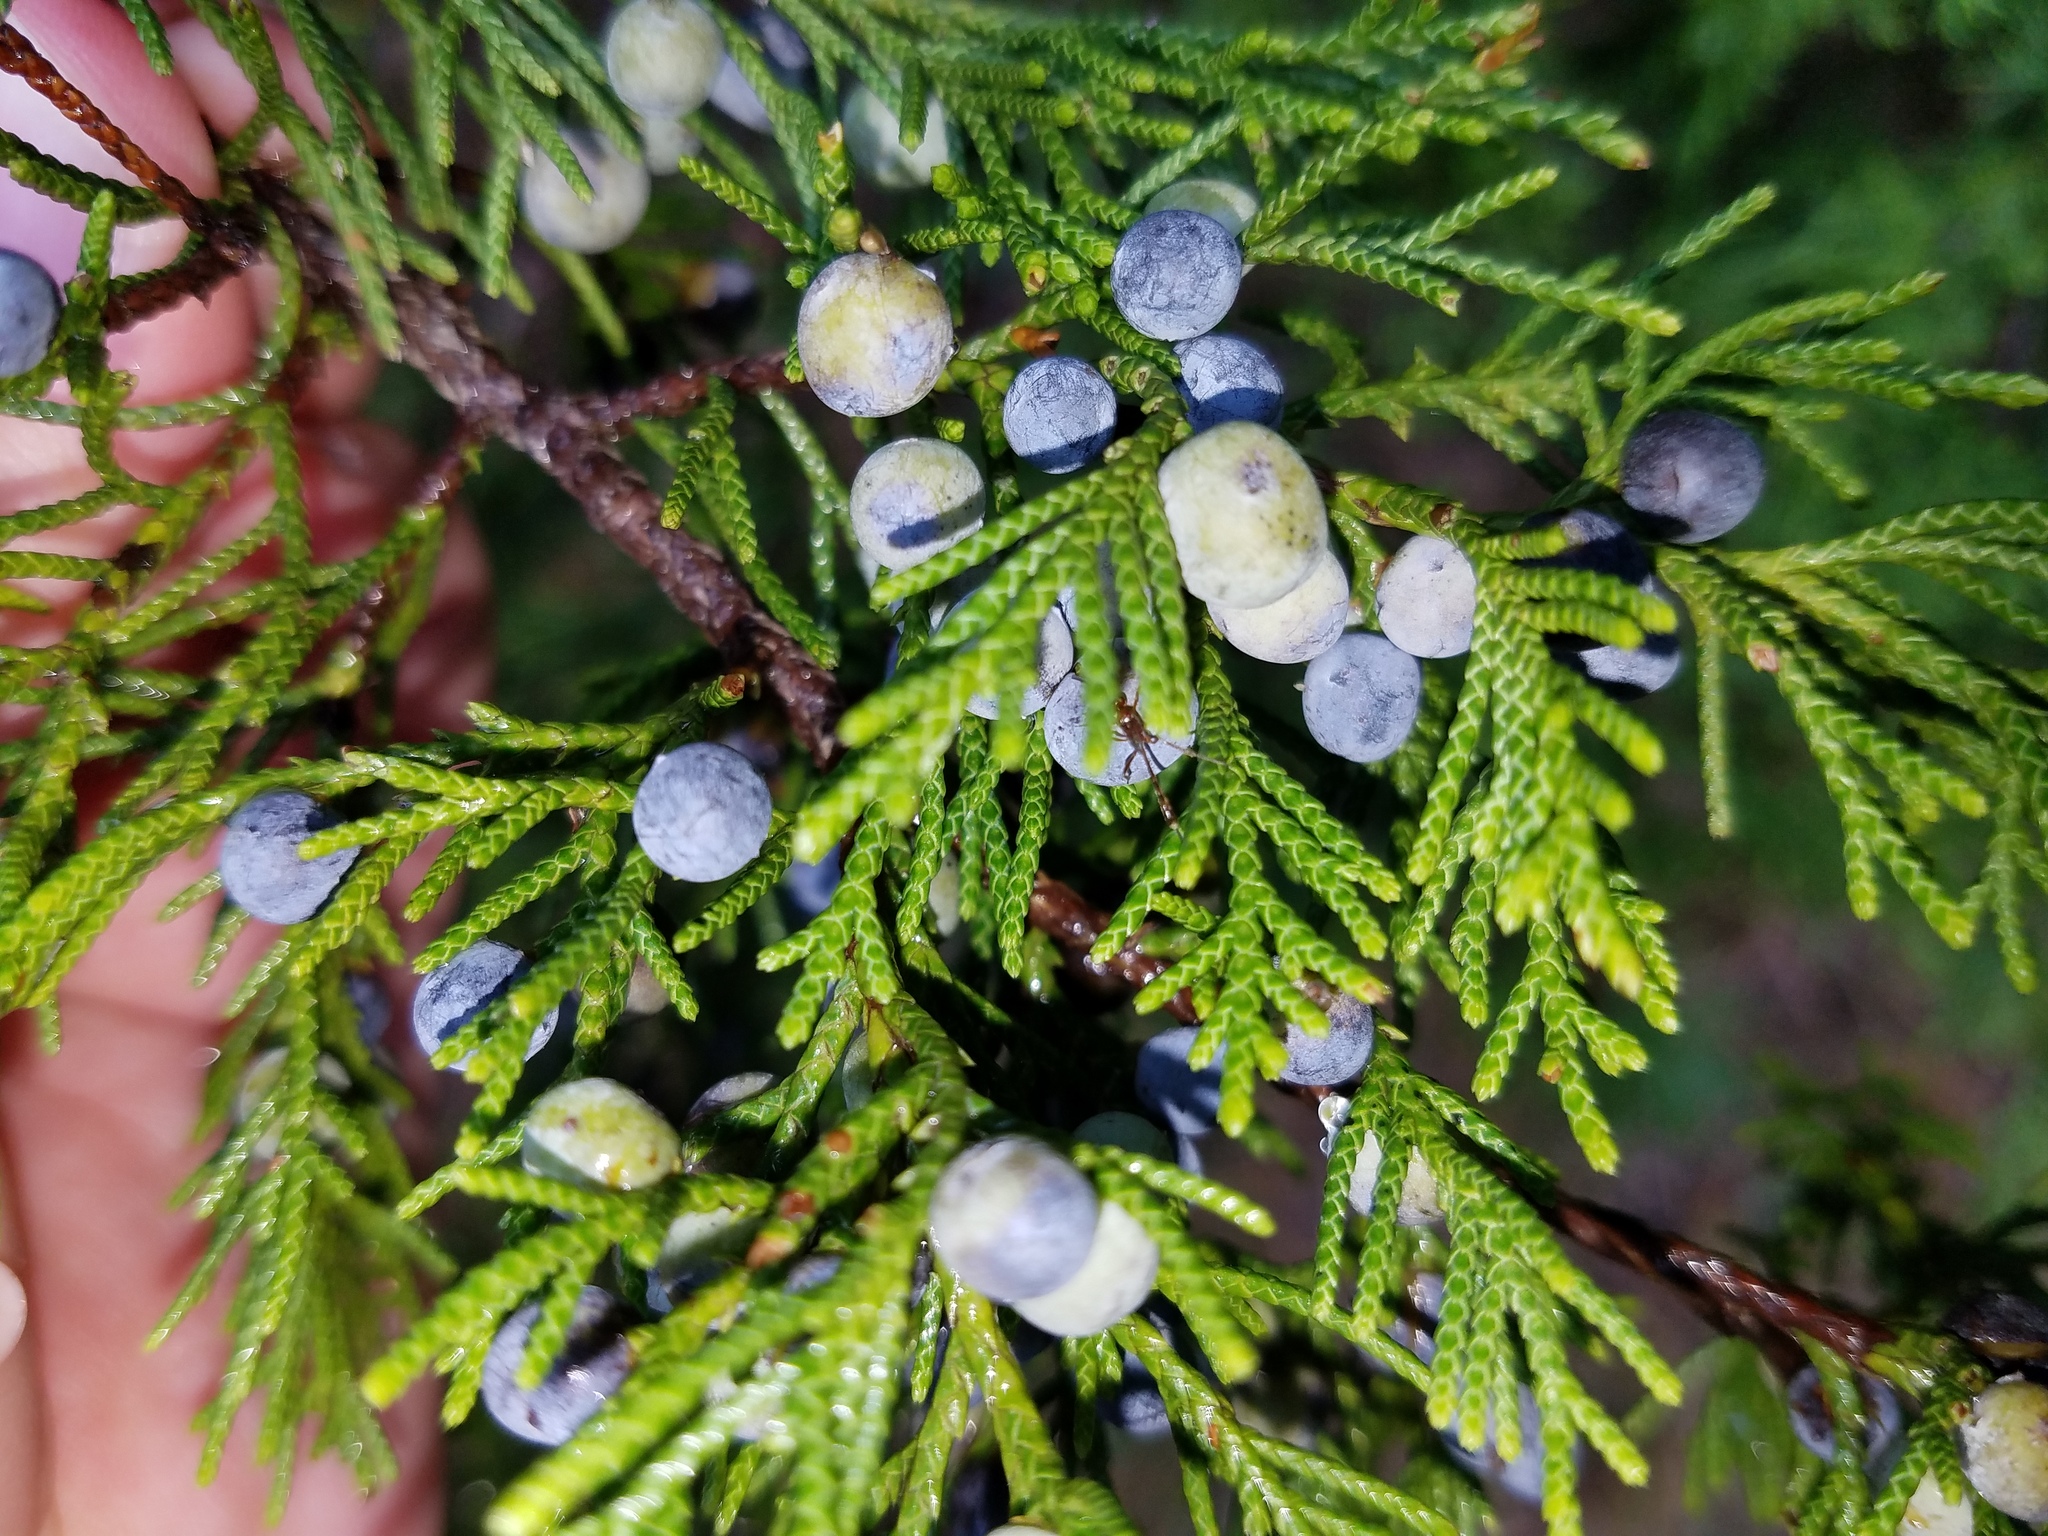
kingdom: Plantae
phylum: Tracheophyta
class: Pinopsida
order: Pinales
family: Cupressaceae
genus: Juniperus
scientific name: Juniperus virginiana
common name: Red juniper
